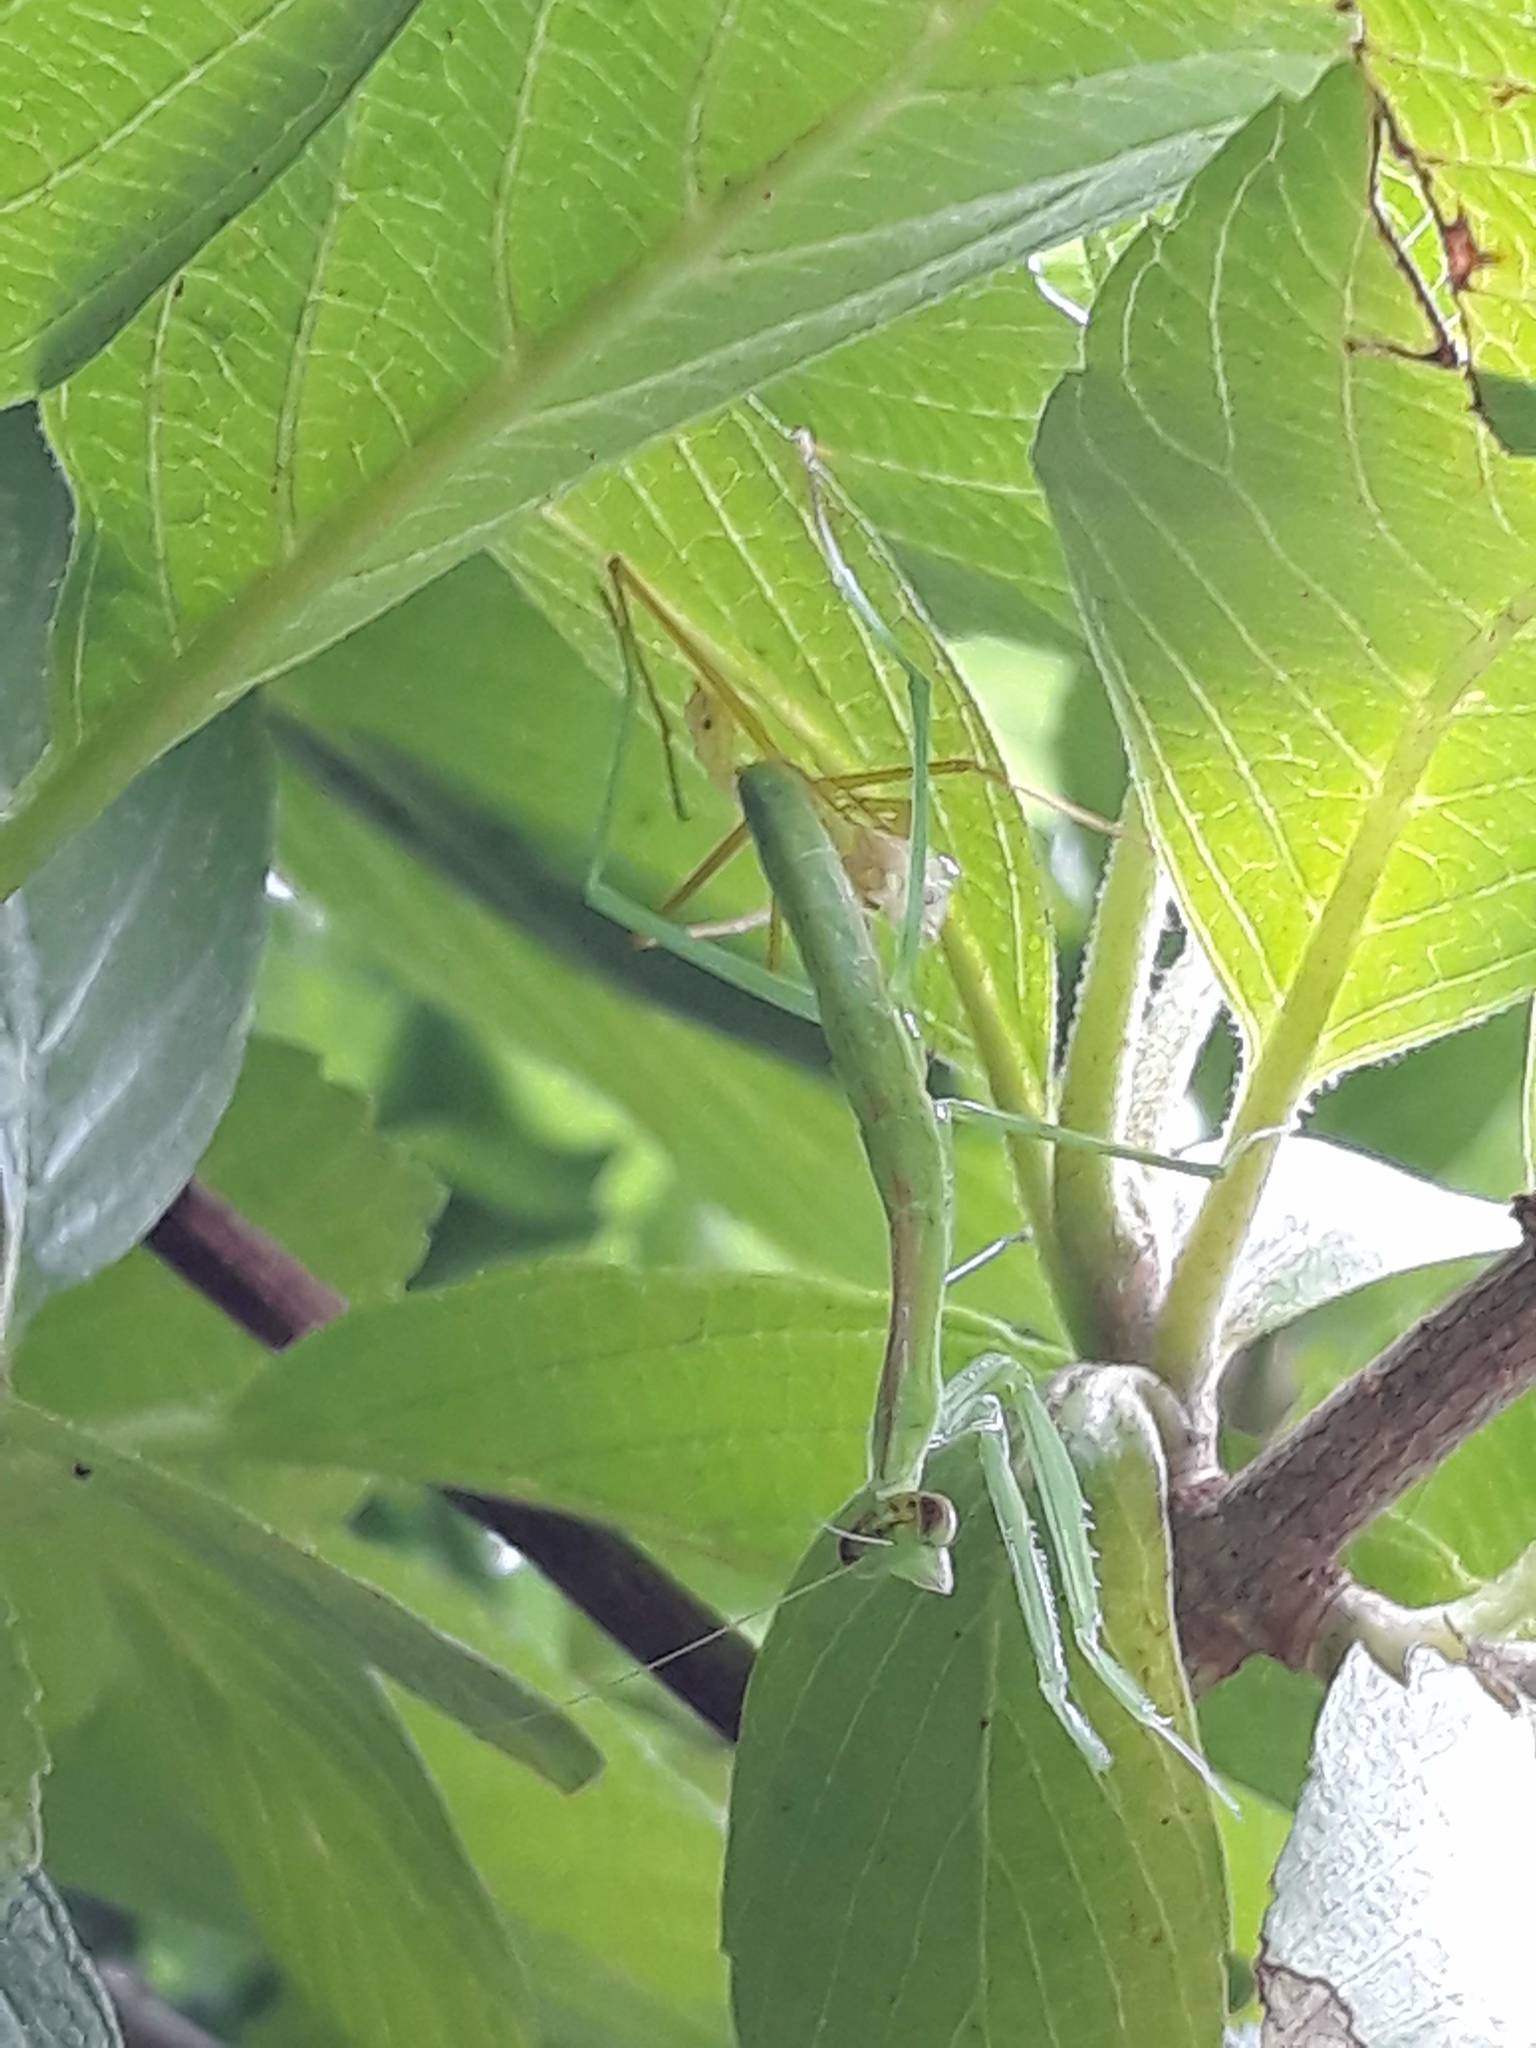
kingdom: Animalia
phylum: Arthropoda
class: Insecta
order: Mantodea
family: Mantidae
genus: Tenodera
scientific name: Tenodera sinensis
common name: Chinese mantis
